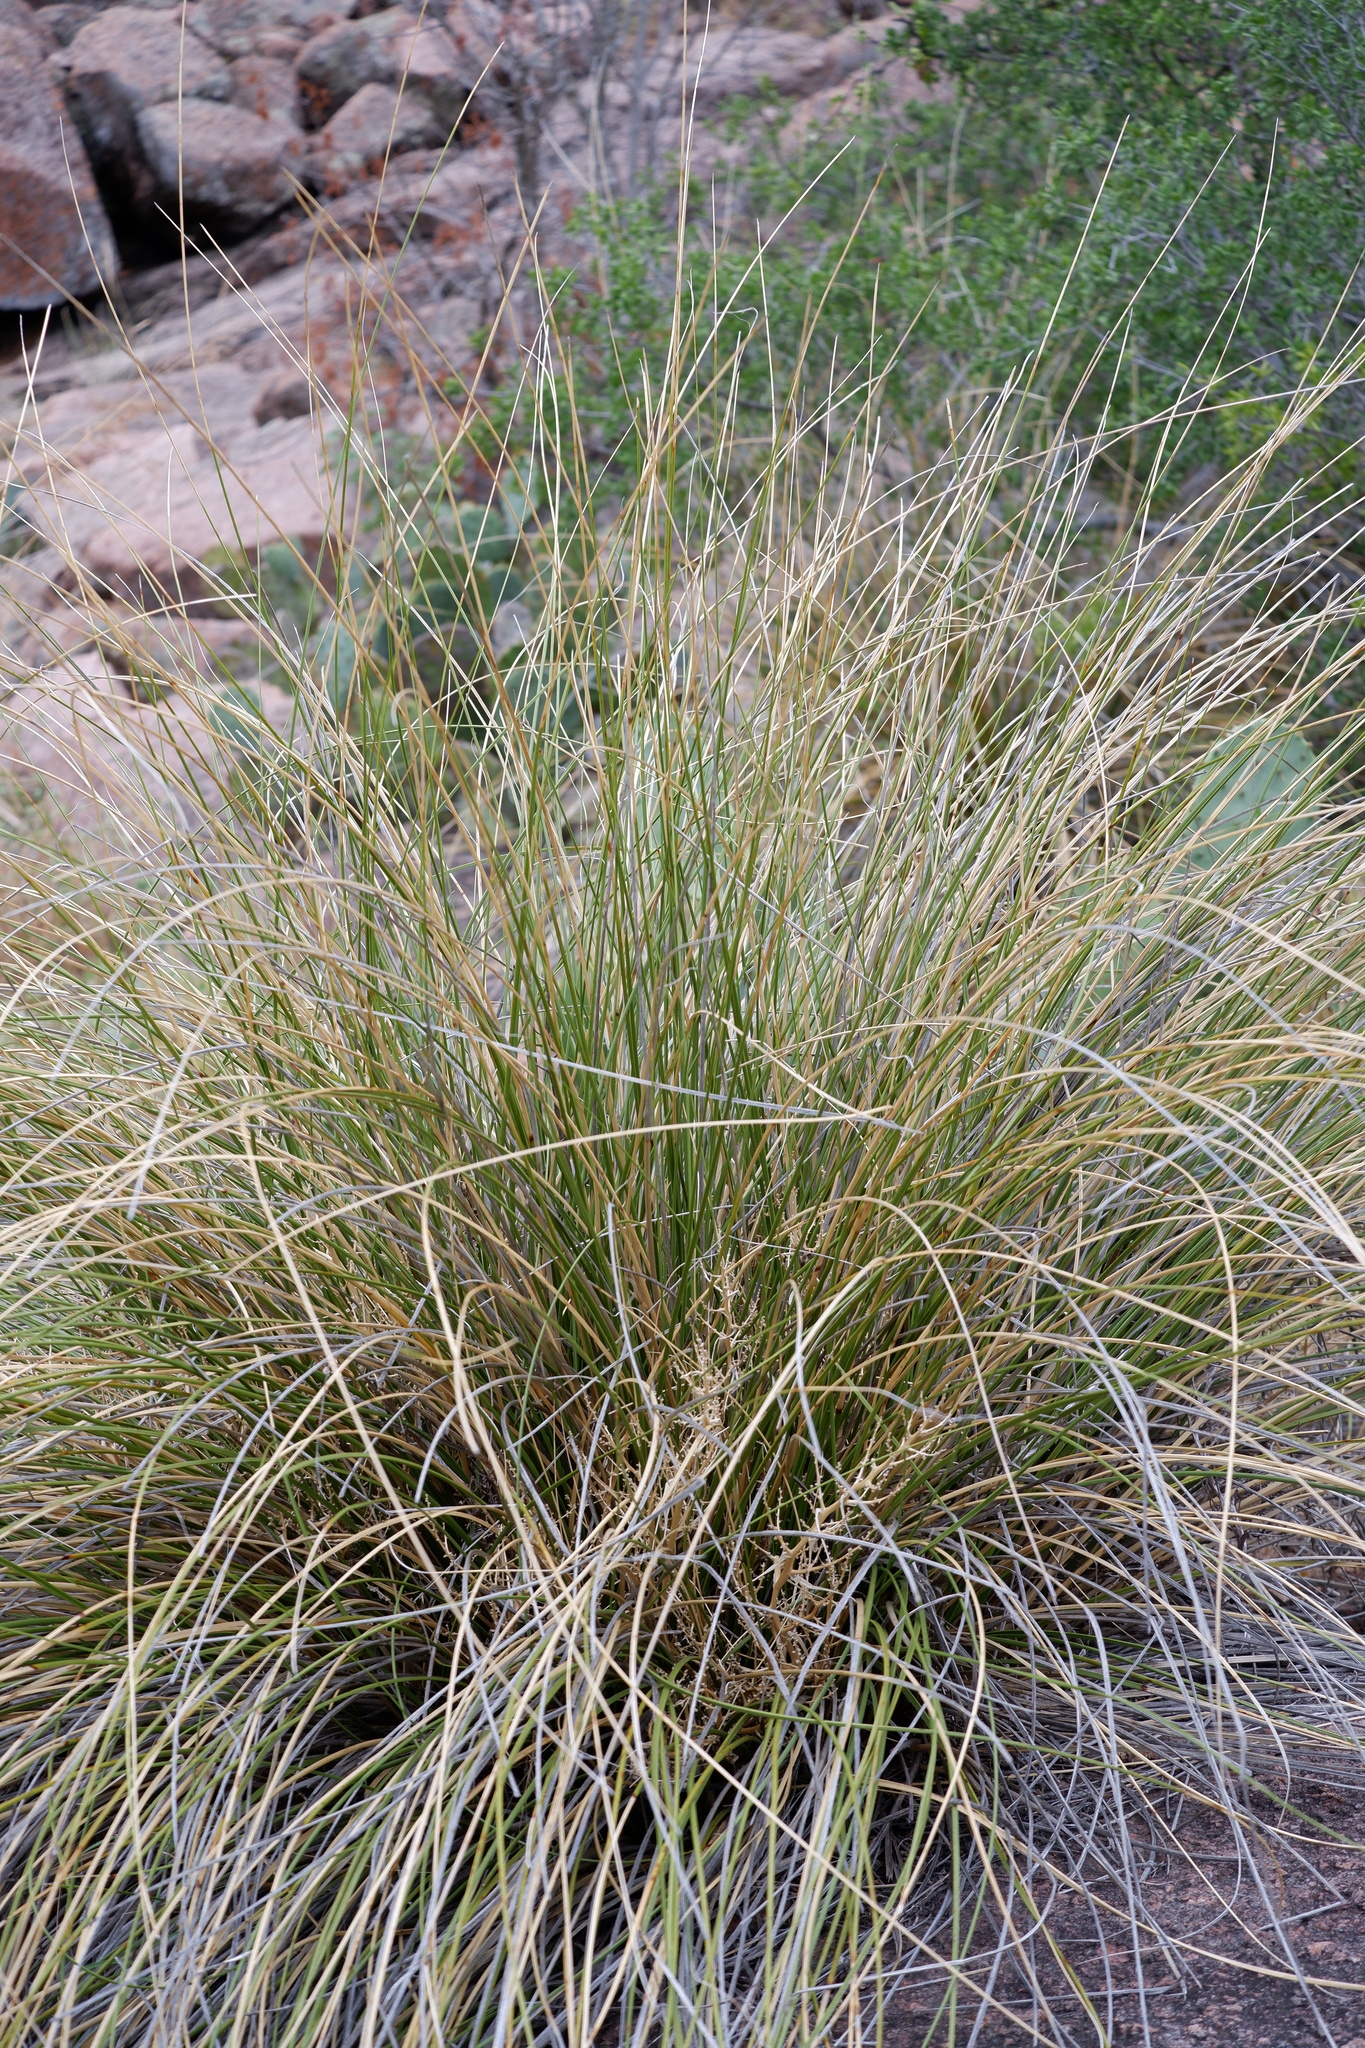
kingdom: Plantae
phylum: Tracheophyta
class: Liliopsida
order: Asparagales
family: Asparagaceae
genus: Nolina
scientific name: Nolina texana
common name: Texas sacahuiste
